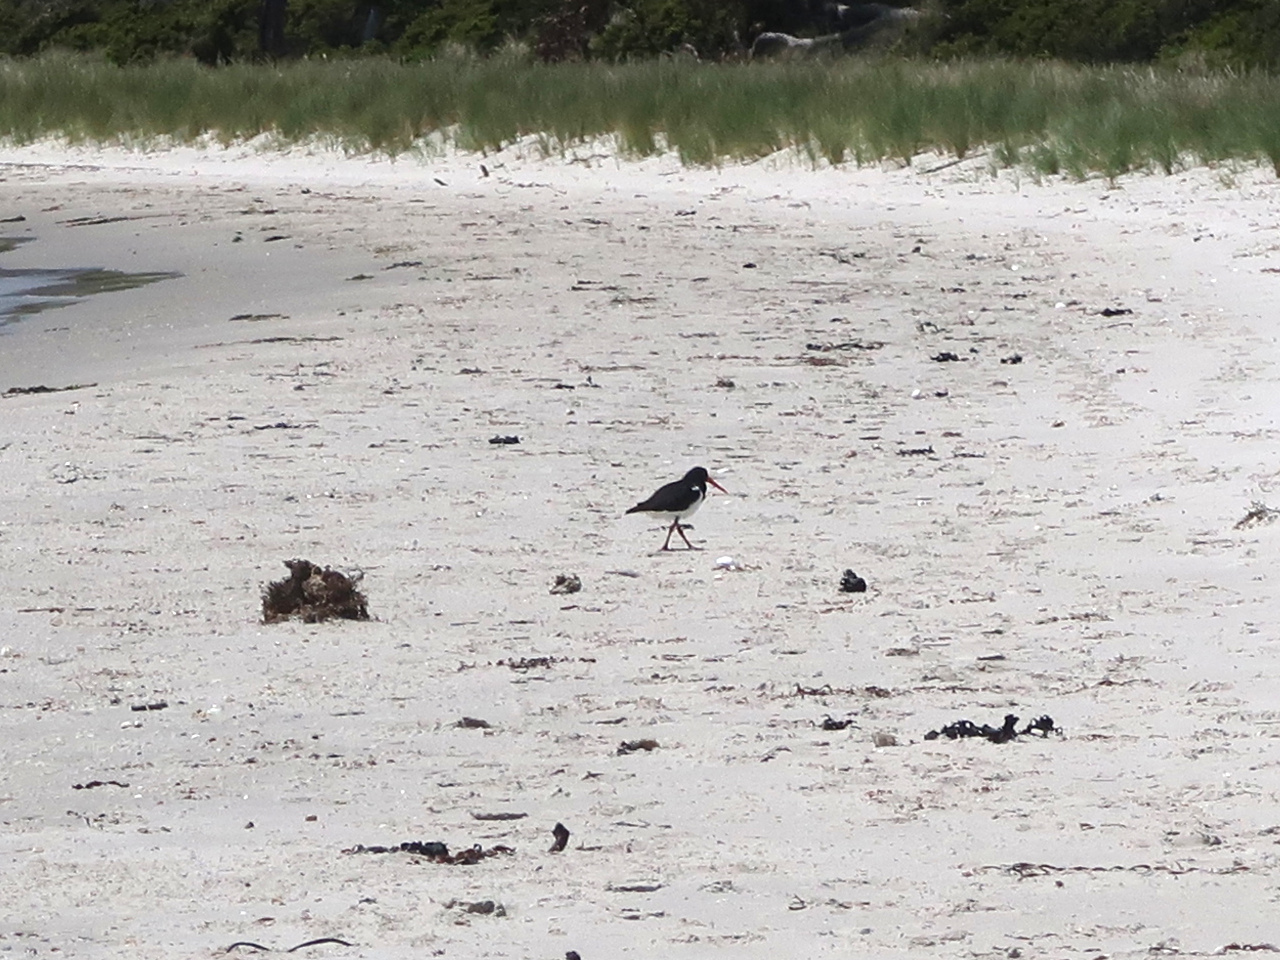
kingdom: Animalia
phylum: Chordata
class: Aves
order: Charadriiformes
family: Haematopodidae
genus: Haematopus
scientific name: Haematopus longirostris
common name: Pied oystercatcher
